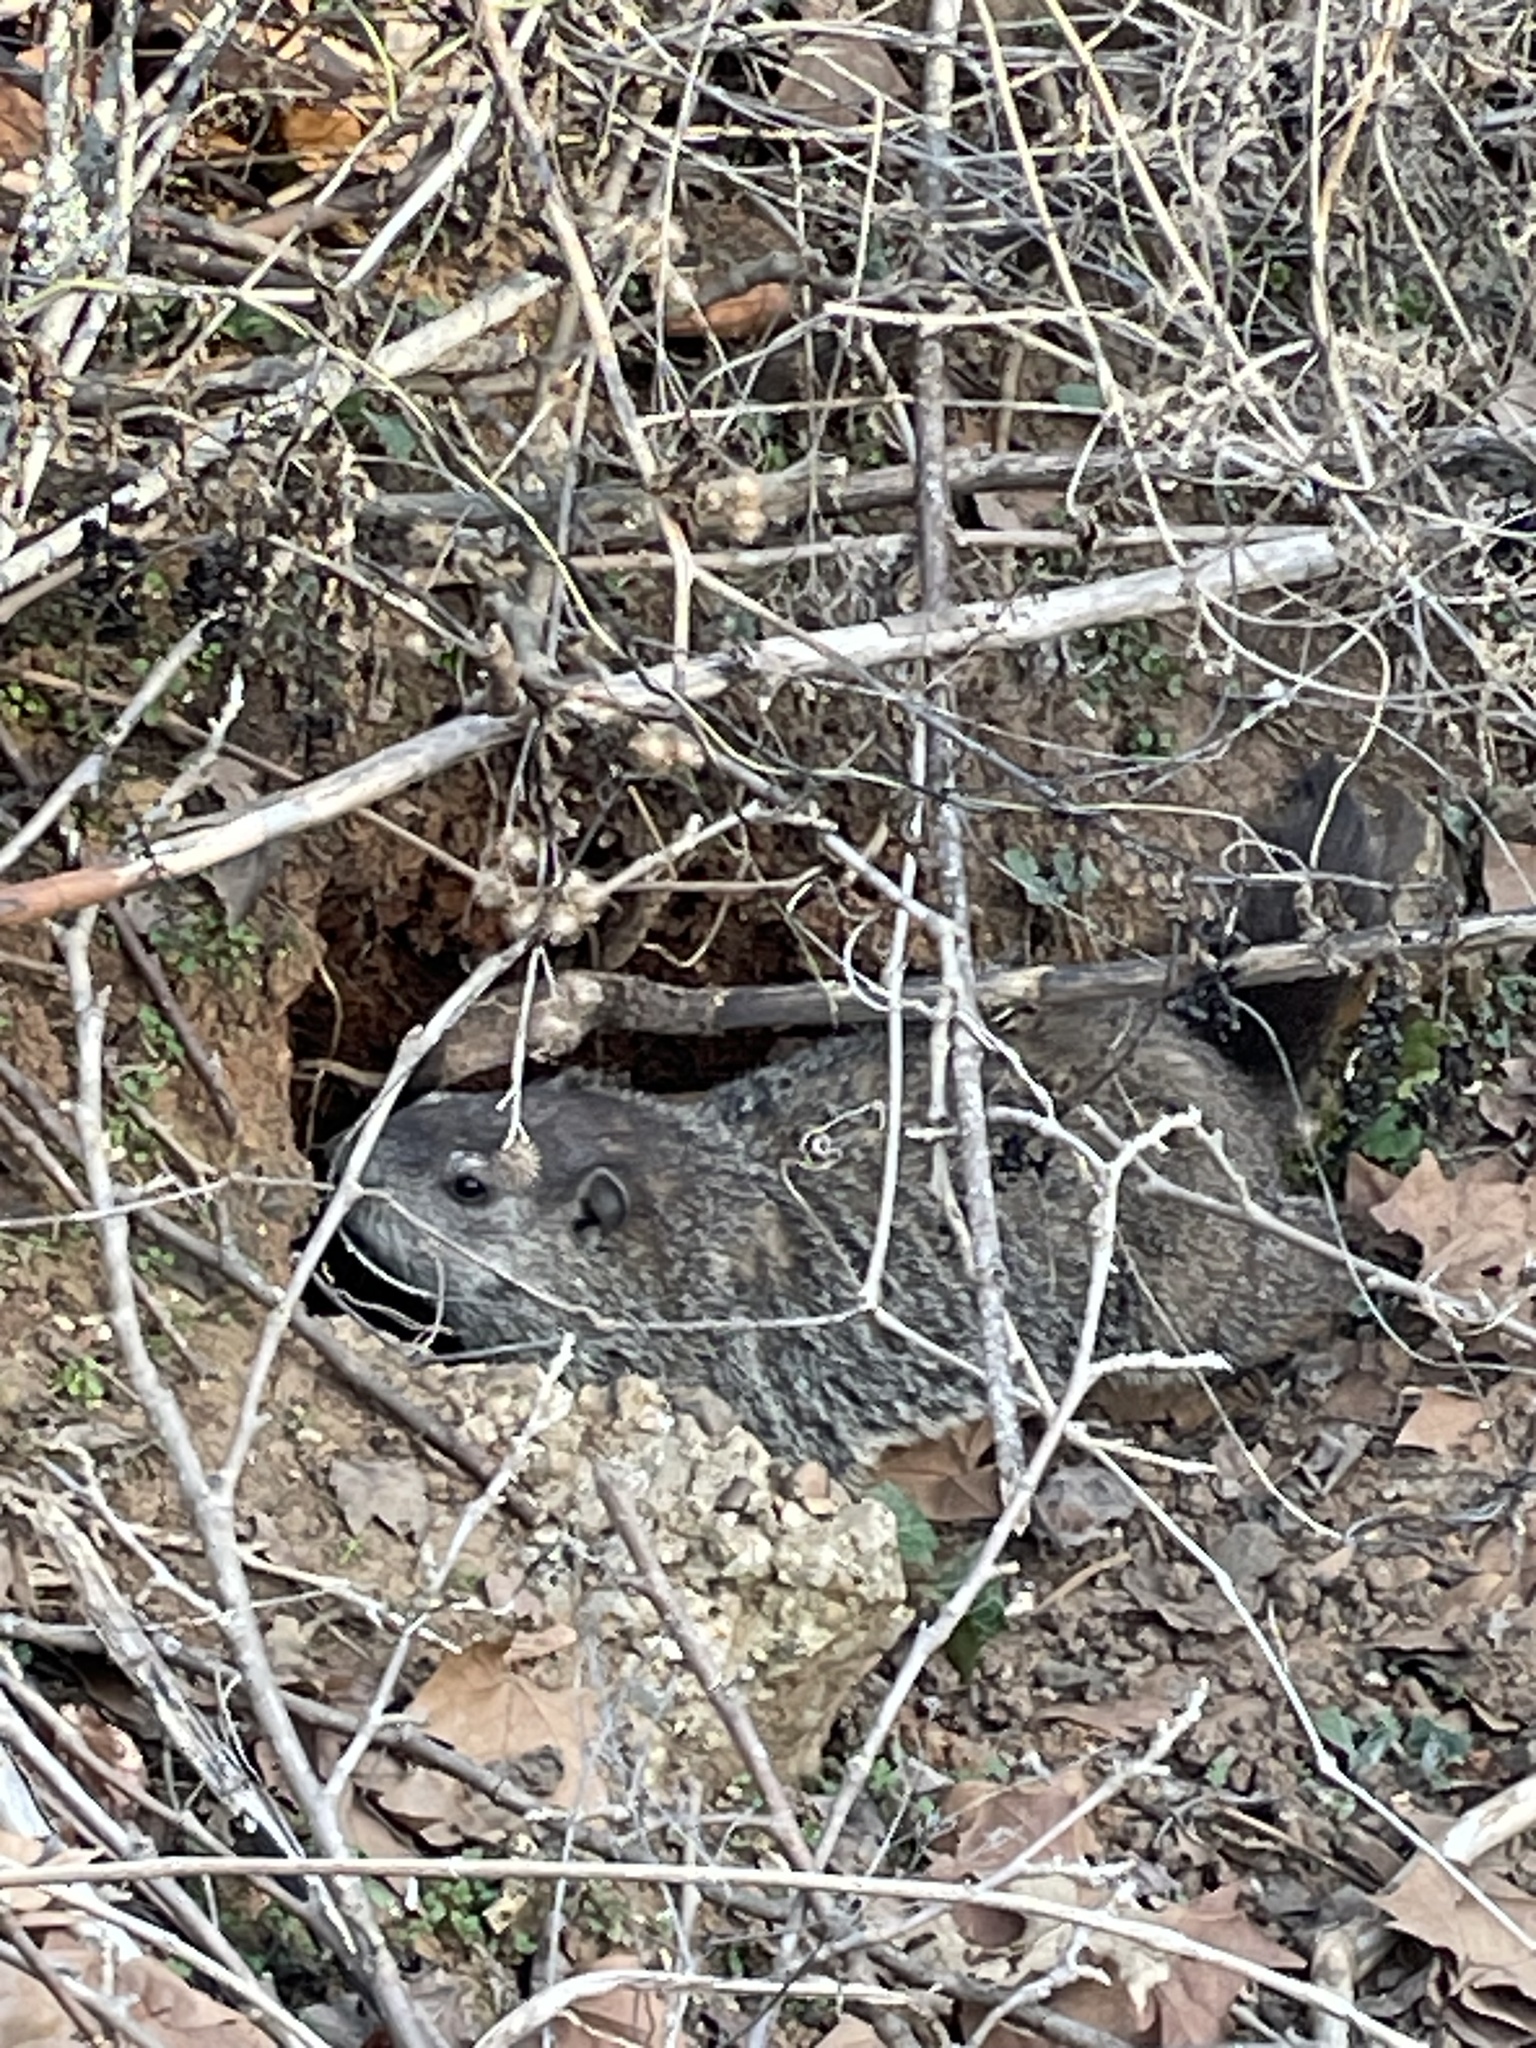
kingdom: Animalia
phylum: Chordata
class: Mammalia
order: Rodentia
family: Sciuridae
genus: Marmota
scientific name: Marmota monax
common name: Groundhog
